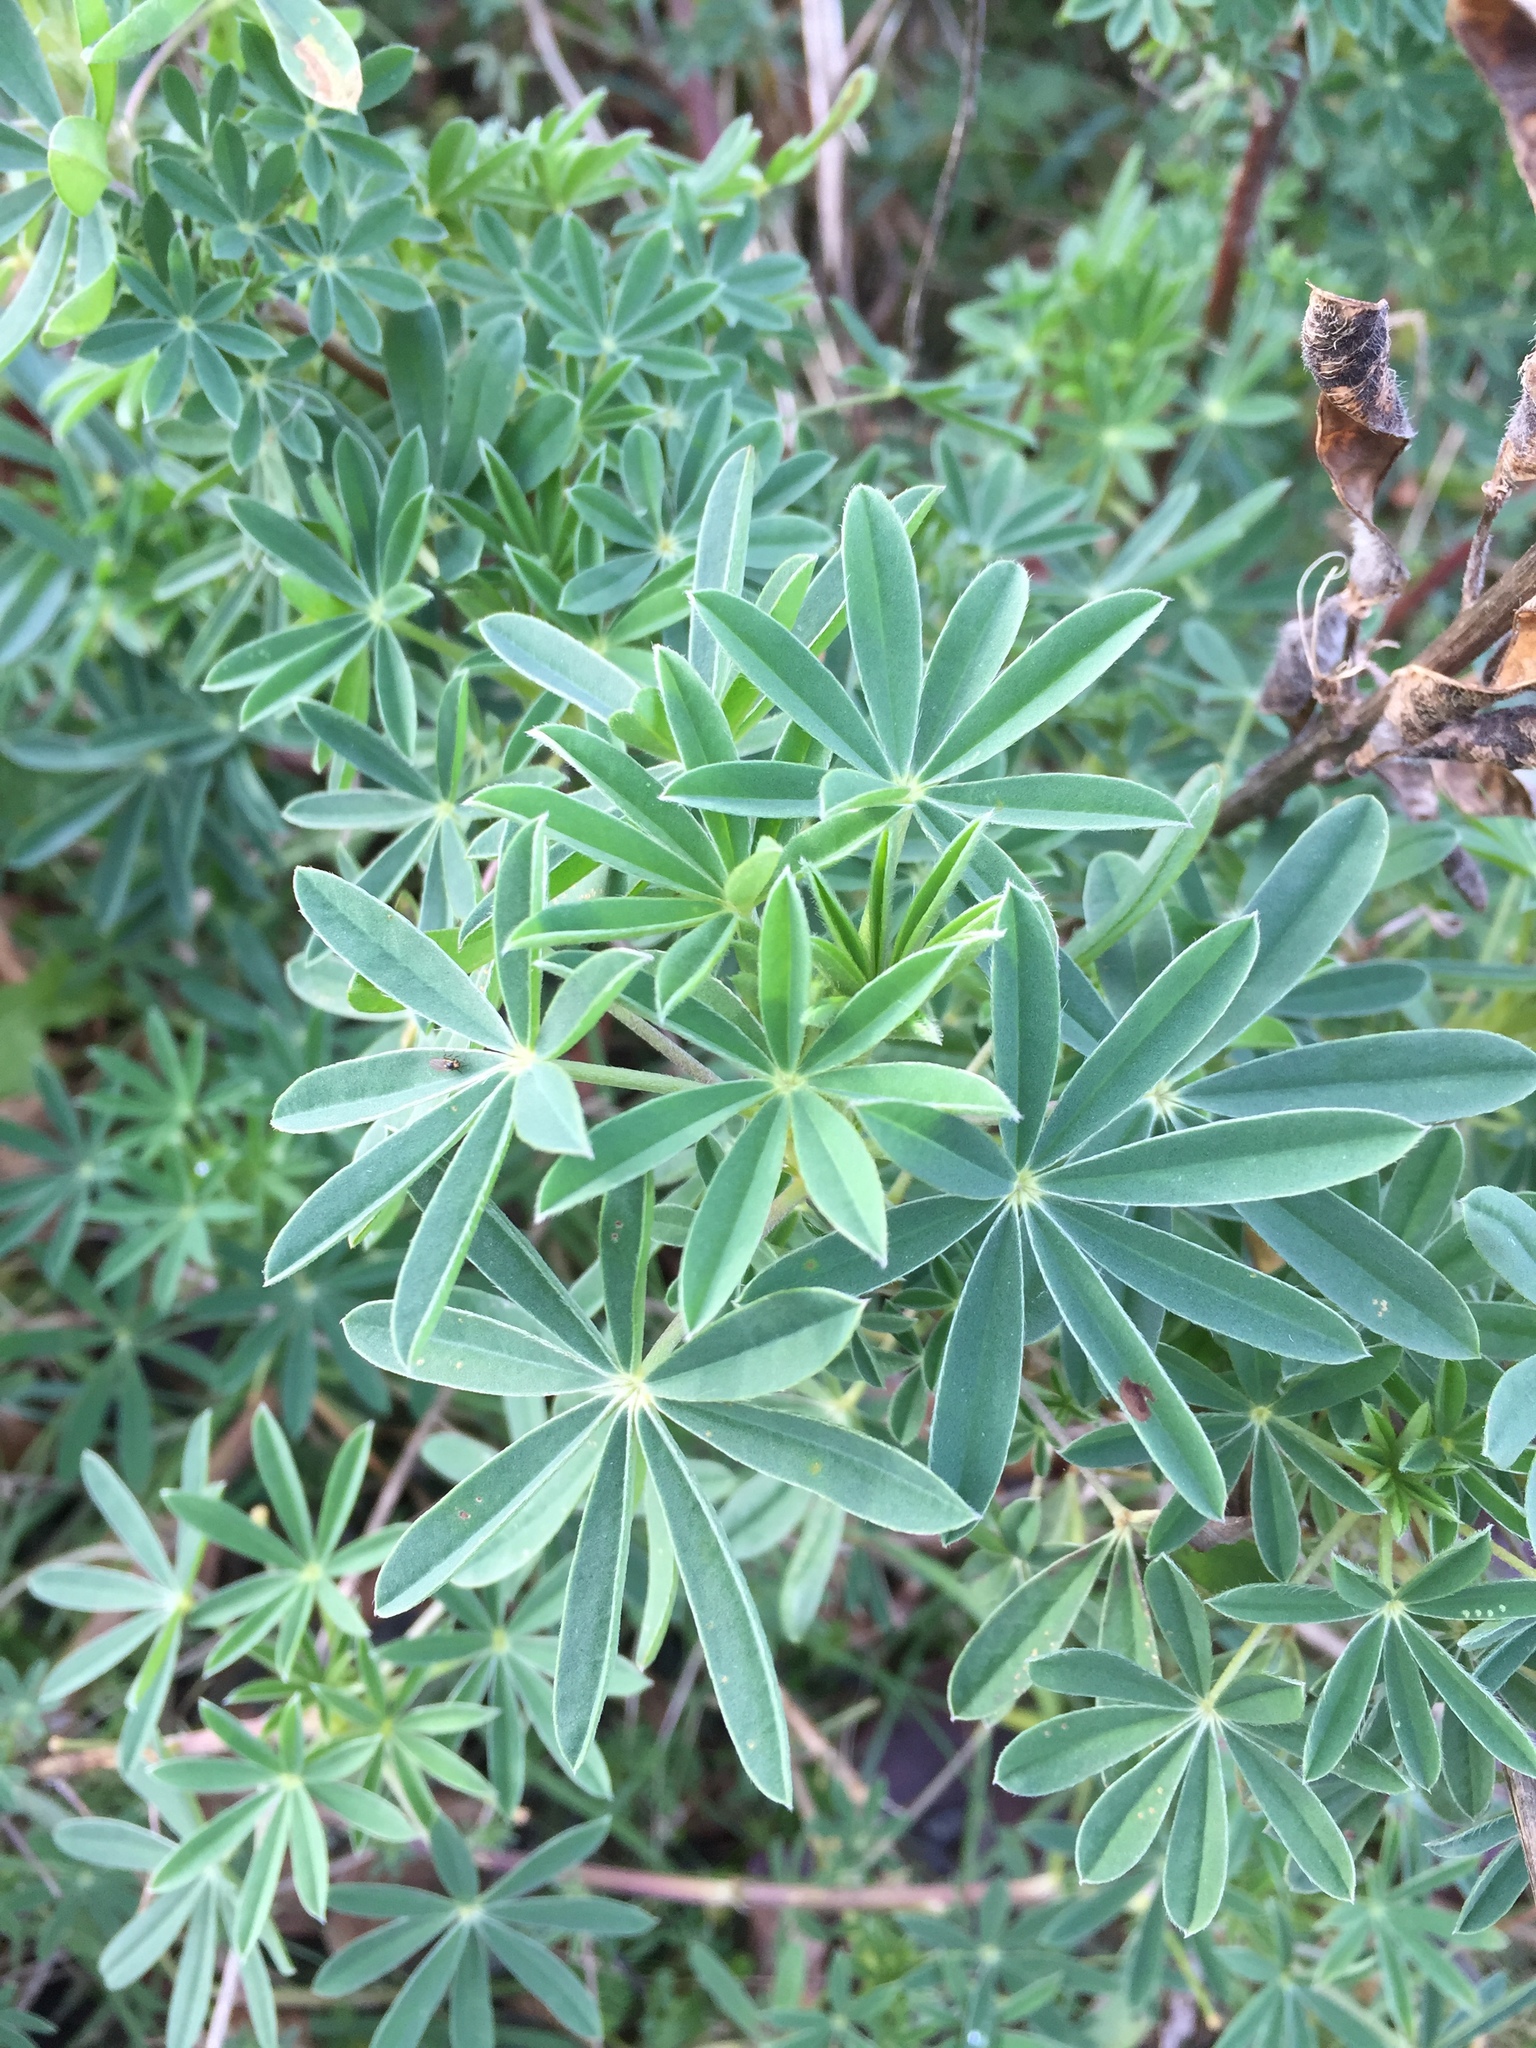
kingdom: Plantae
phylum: Tracheophyta
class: Magnoliopsida
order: Fabales
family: Fabaceae
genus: Lupinus
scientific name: Lupinus arboreus
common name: Yellow bush lupine
